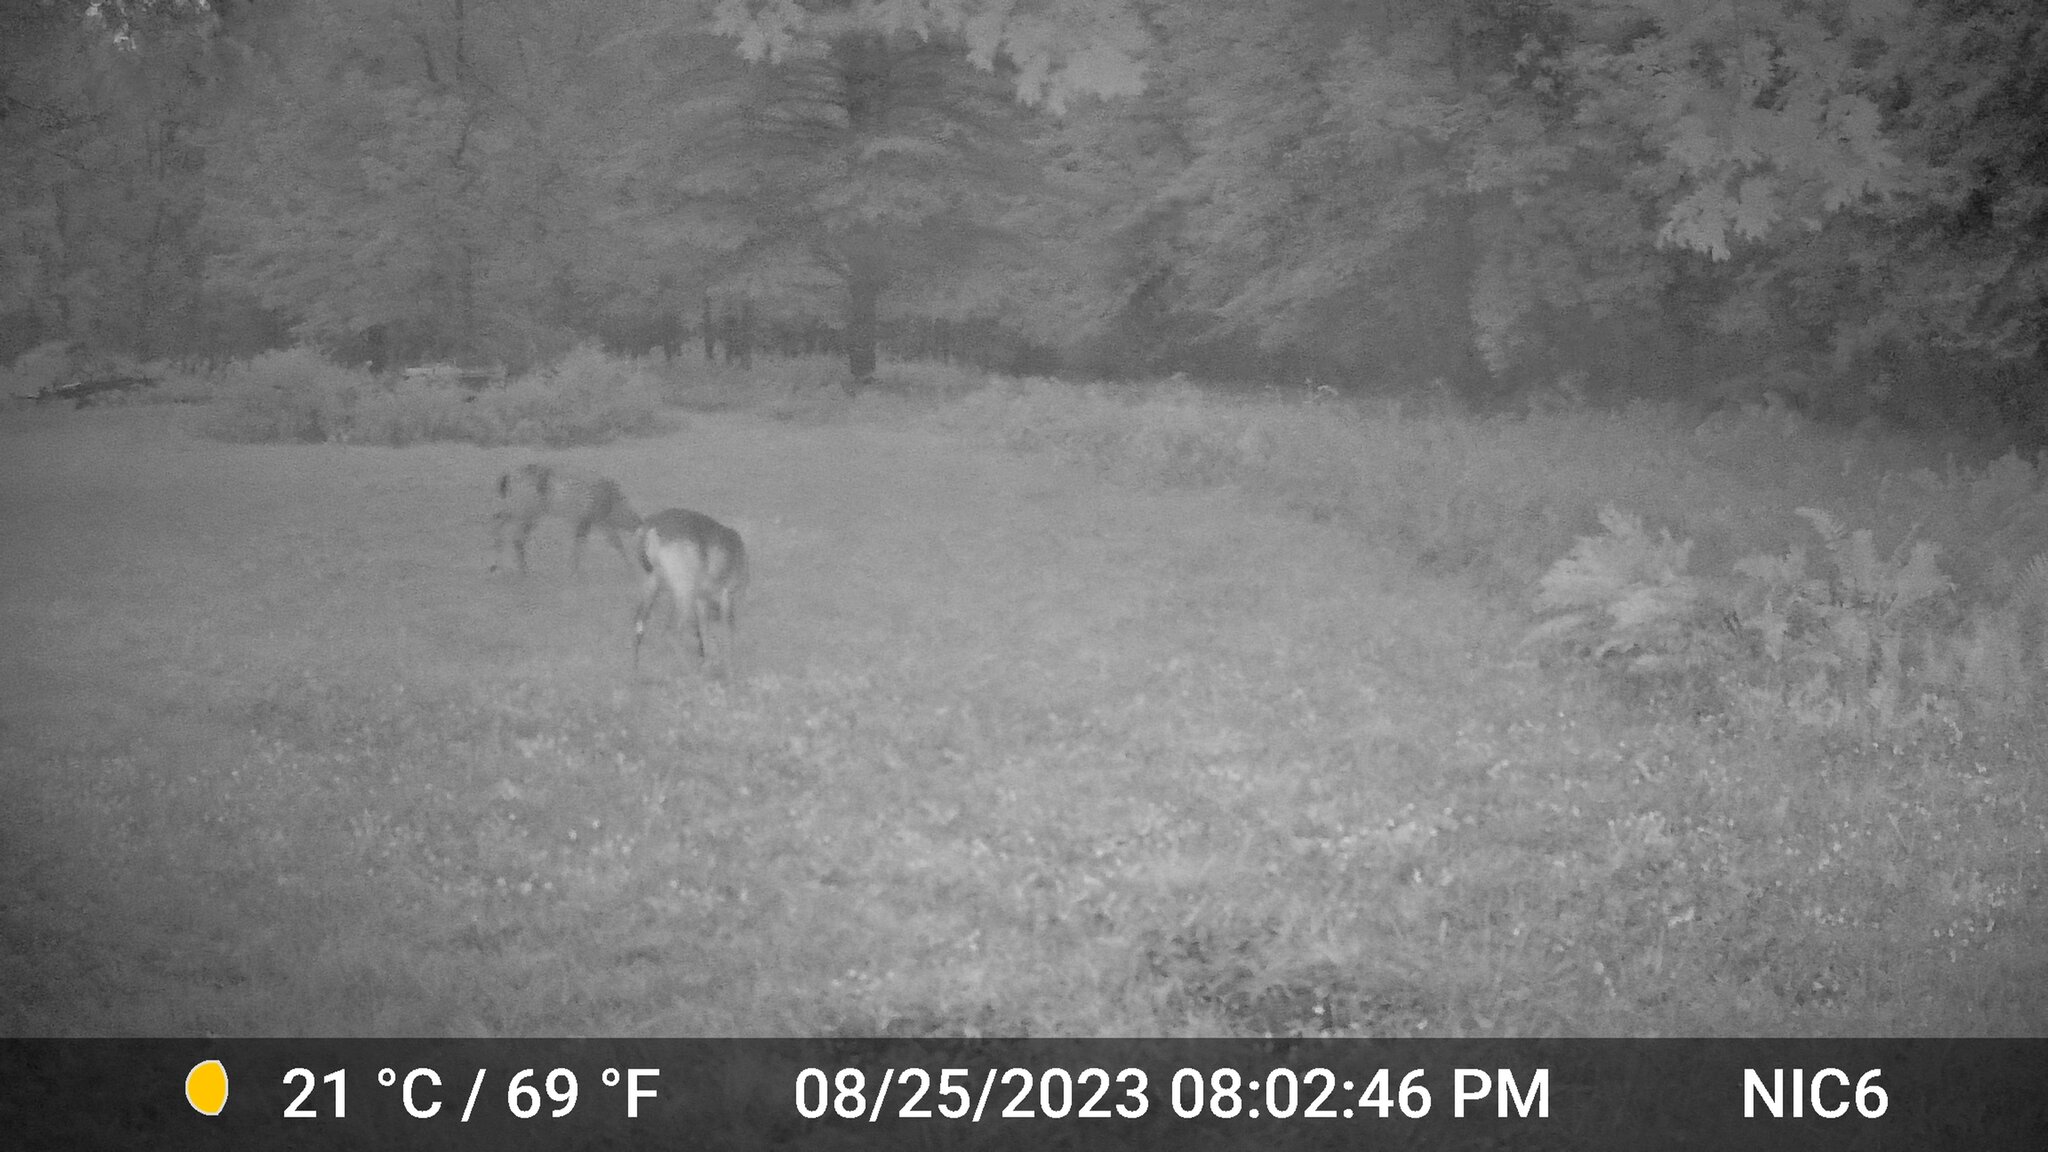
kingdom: Animalia
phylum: Chordata
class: Mammalia
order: Artiodactyla
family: Cervidae
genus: Odocoileus
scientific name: Odocoileus virginianus
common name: White-tailed deer
